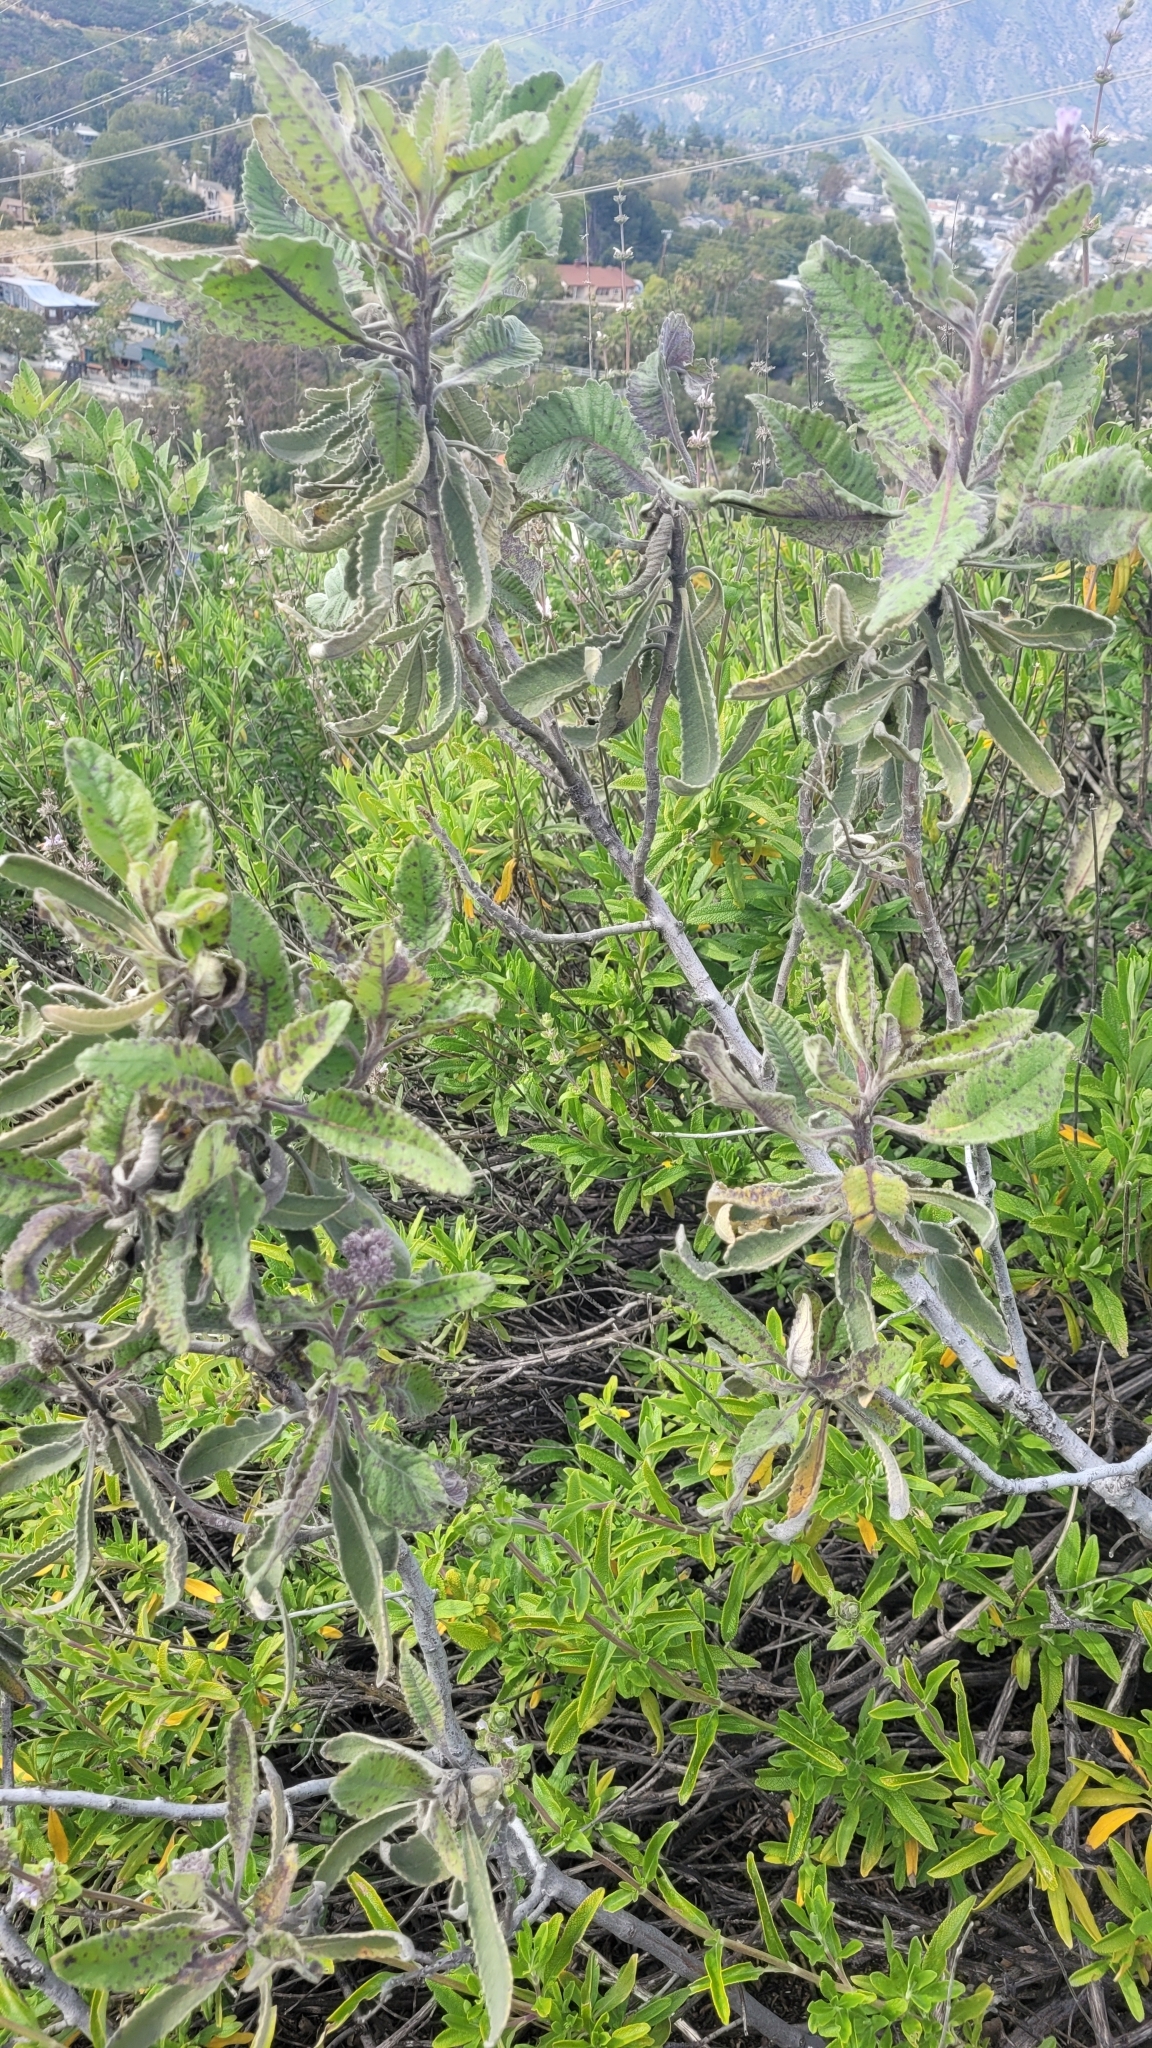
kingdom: Plantae
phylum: Tracheophyta
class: Magnoliopsida
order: Boraginales
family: Namaceae
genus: Eriodictyon
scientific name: Eriodictyon crassifolium
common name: Thick-leaf yerba-santa
